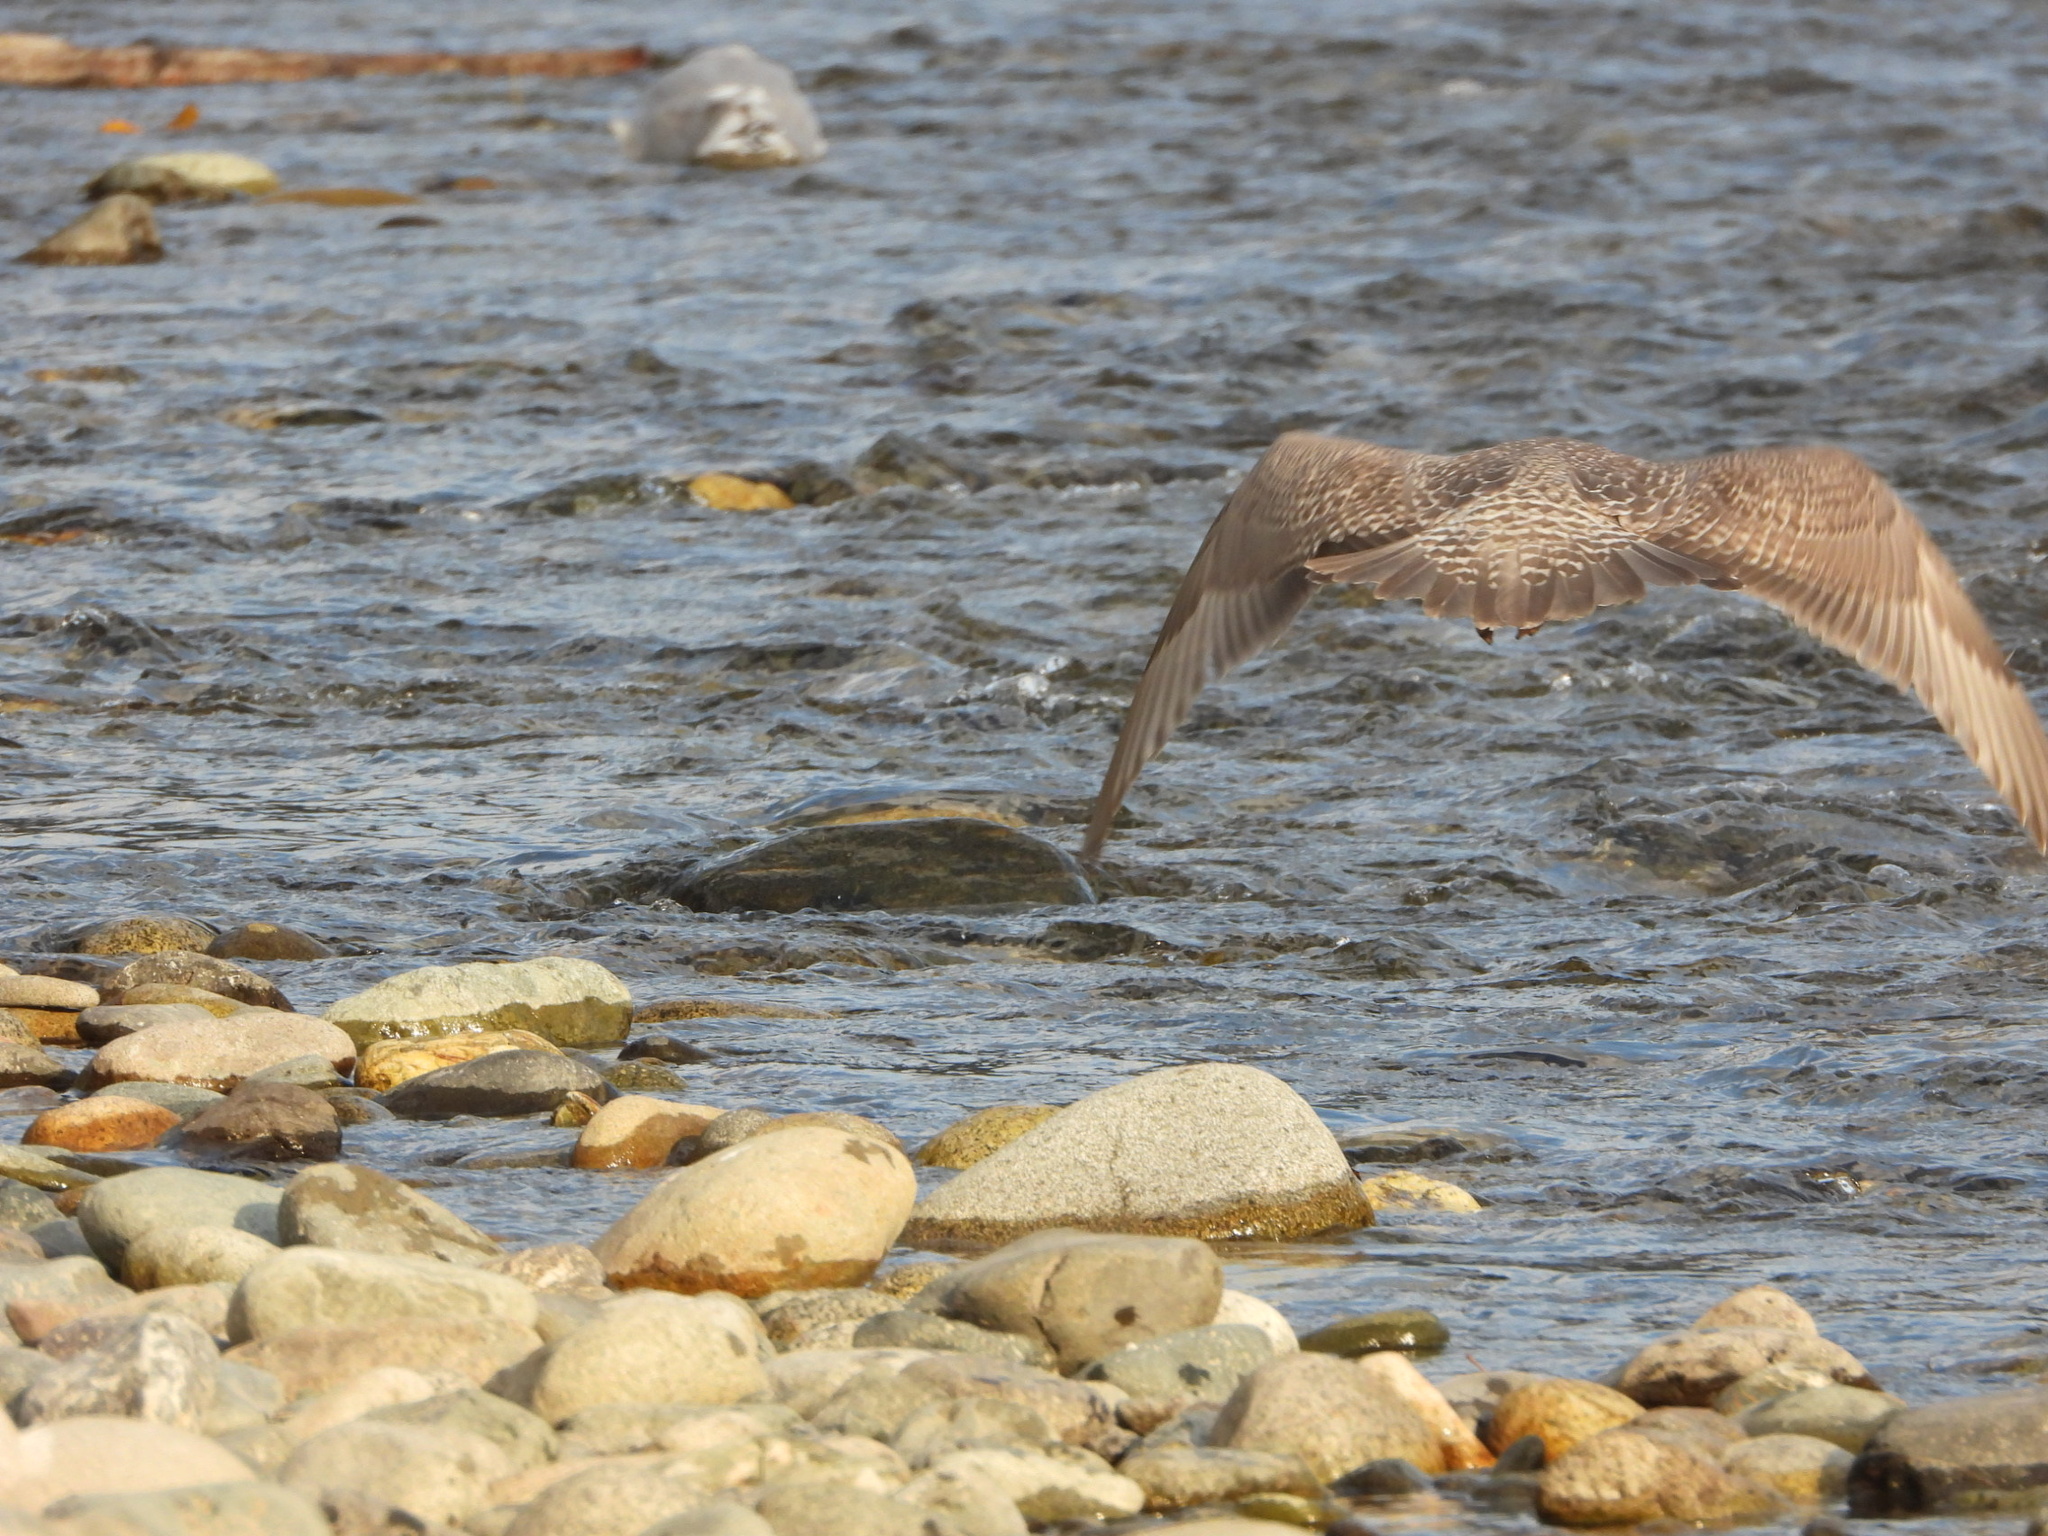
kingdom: Animalia
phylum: Chordata
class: Aves
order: Charadriiformes
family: Laridae
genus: Larus
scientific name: Larus glaucescens
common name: Glaucous-winged gull
